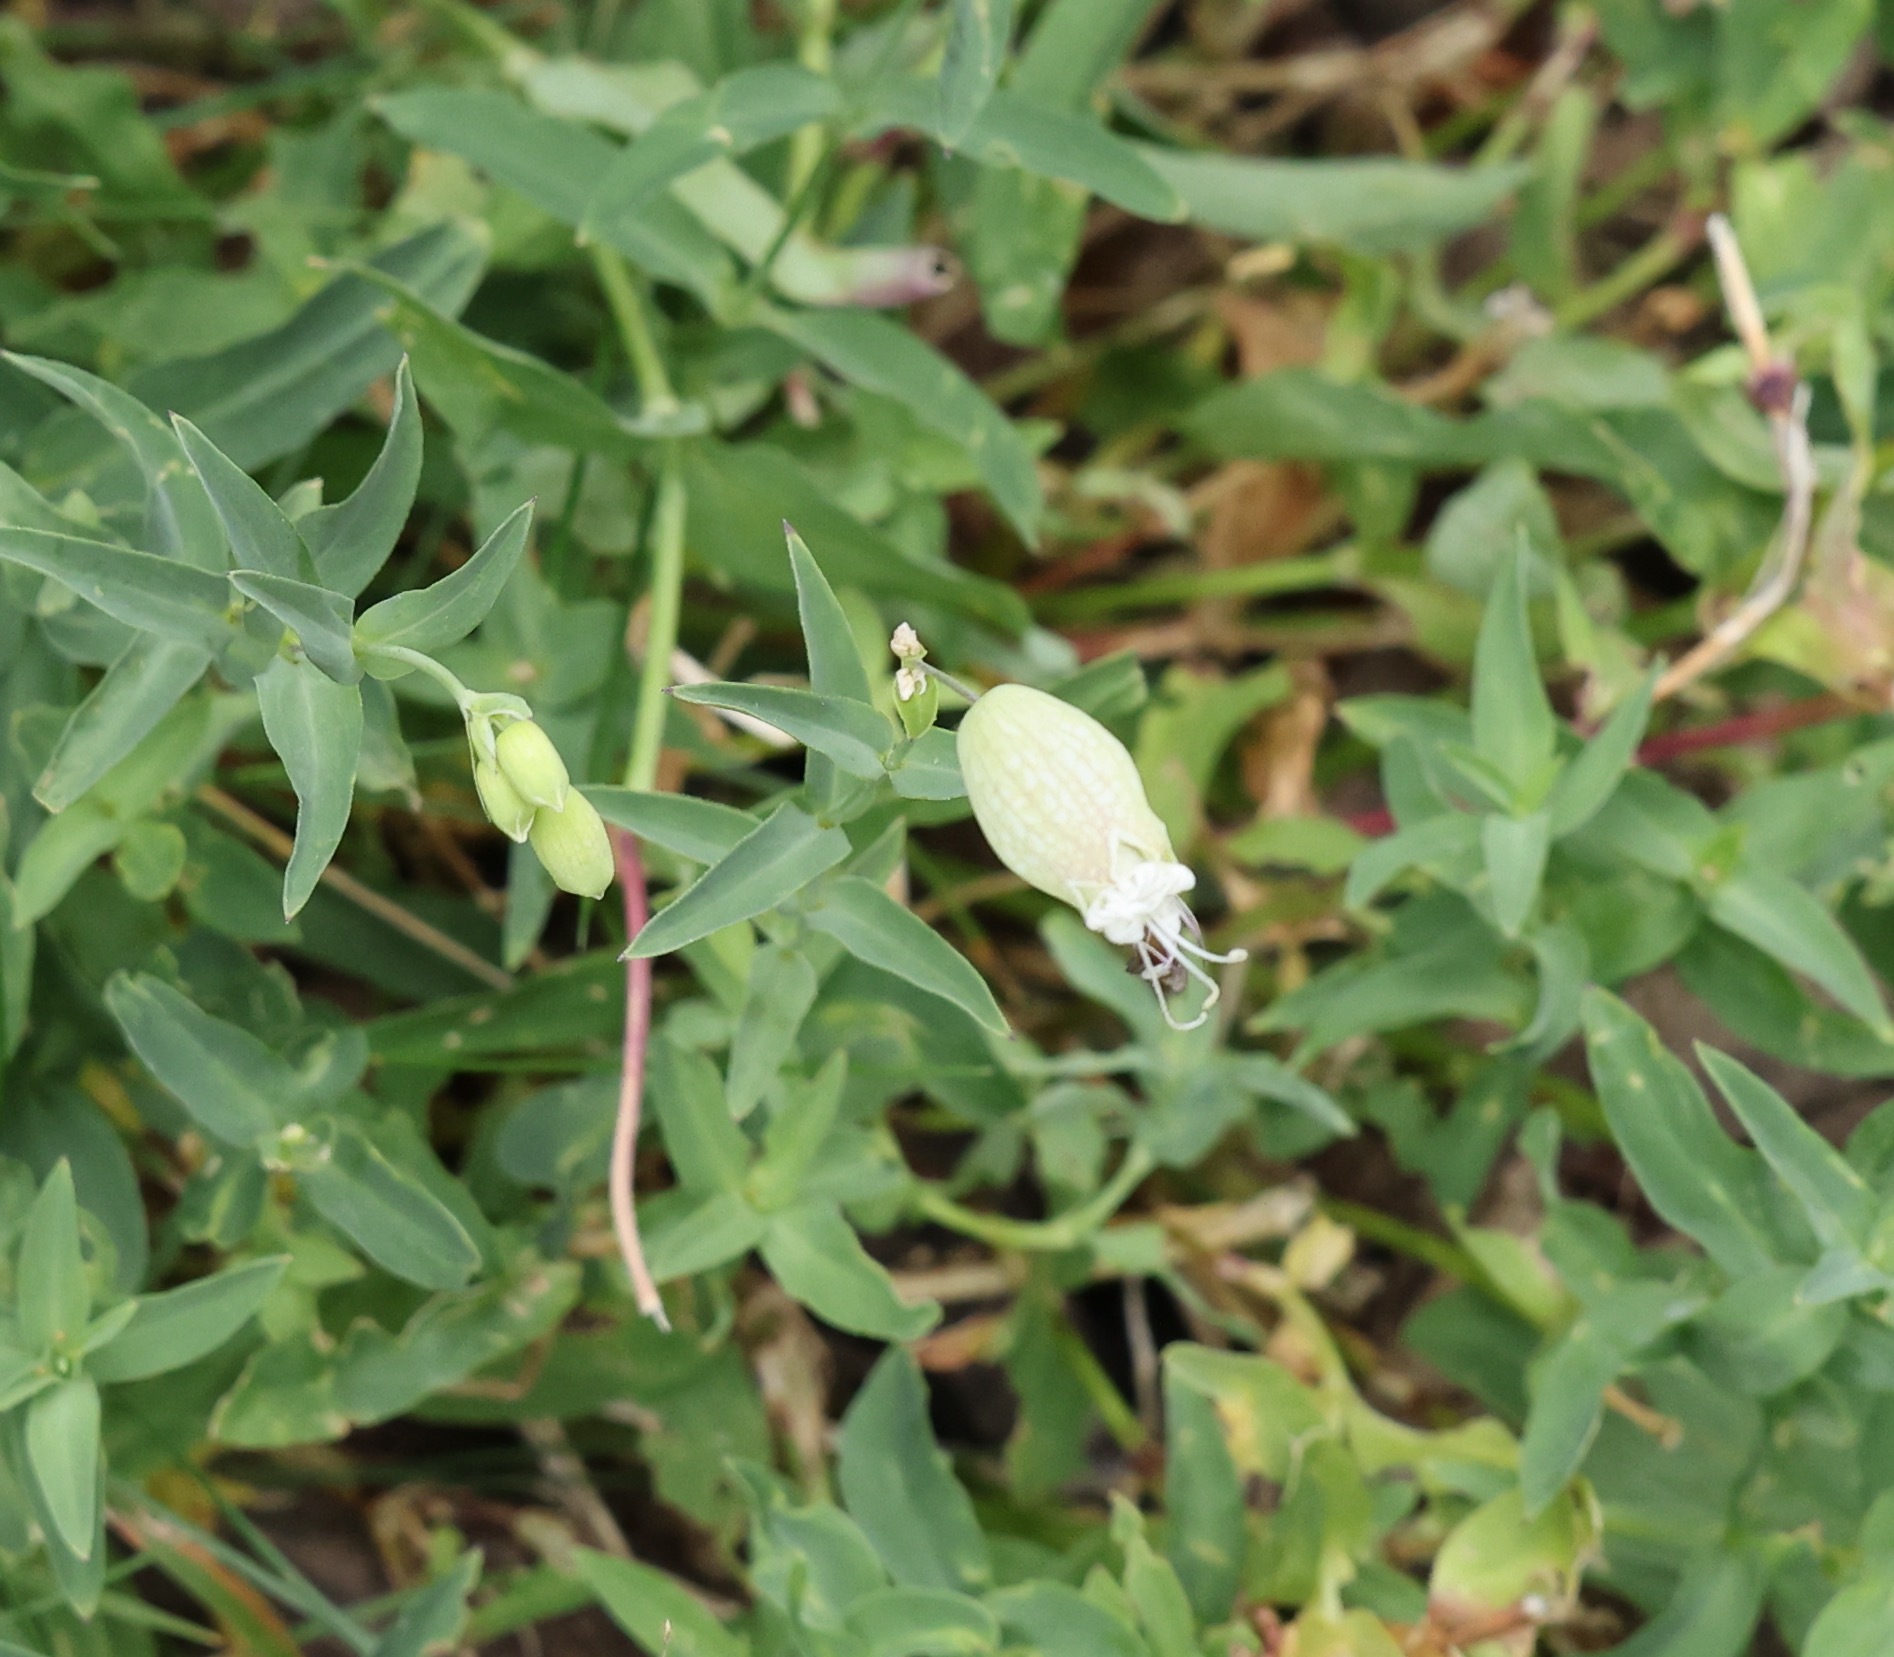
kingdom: Plantae
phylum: Tracheophyta
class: Magnoliopsida
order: Caryophyllales
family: Caryophyllaceae
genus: Silene
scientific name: Silene vulgaris
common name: Bladder campion
